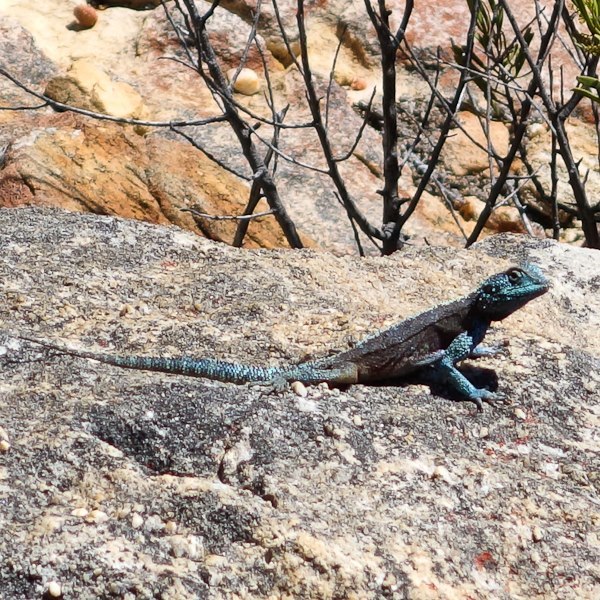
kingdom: Animalia
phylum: Chordata
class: Squamata
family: Agamidae
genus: Agama
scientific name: Agama atra
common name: Southern african rock agama
